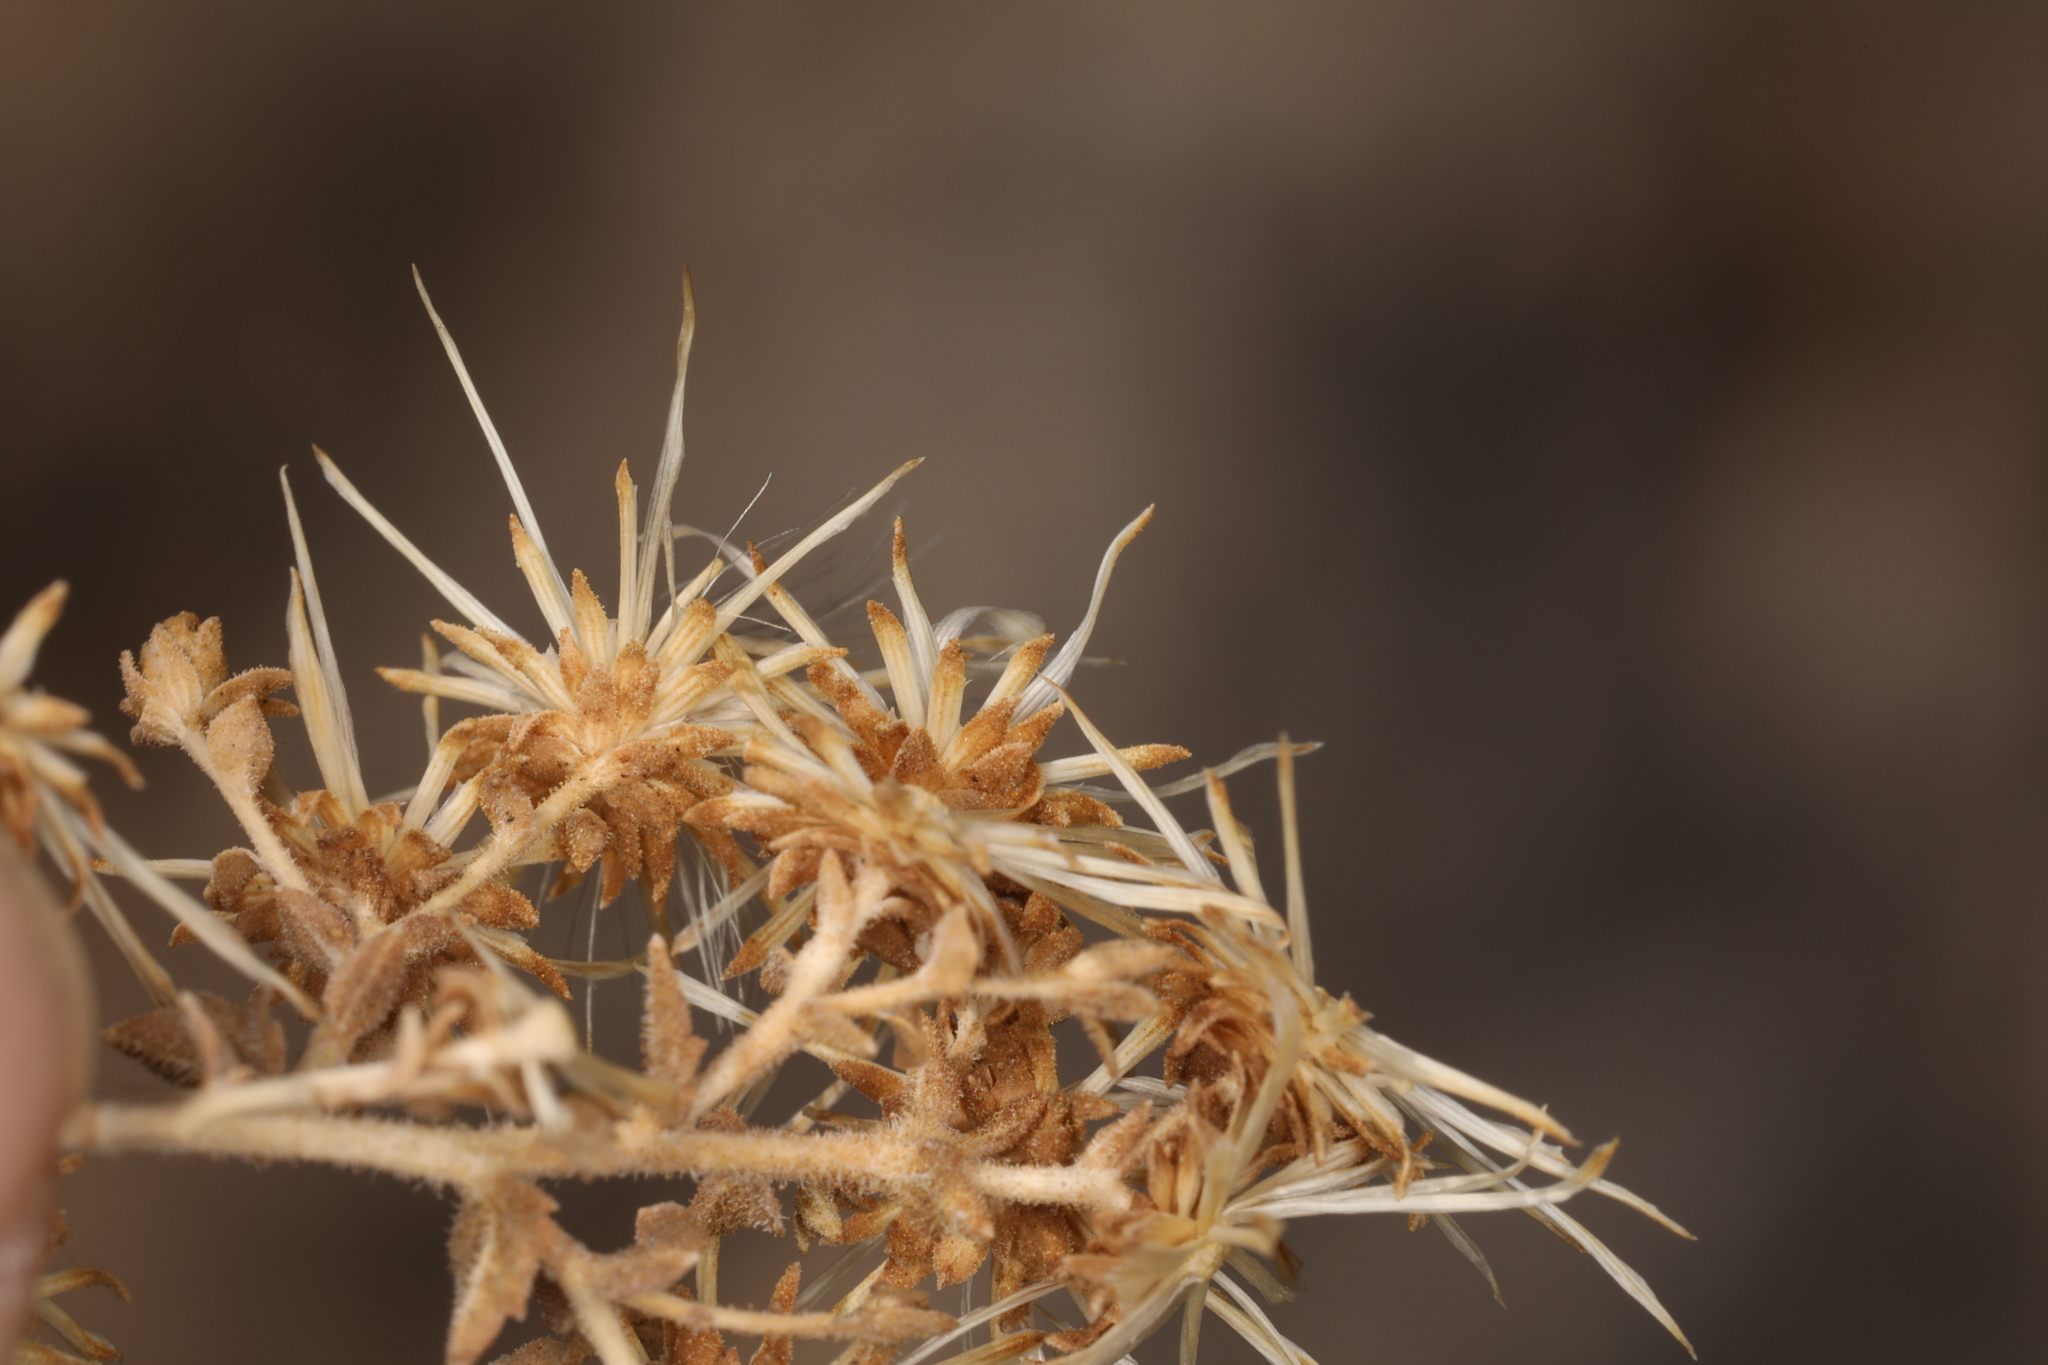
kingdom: Plantae
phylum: Tracheophyta
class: Magnoliopsida
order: Asterales
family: Asteraceae
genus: Brickellia
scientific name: Brickellia microphylla
